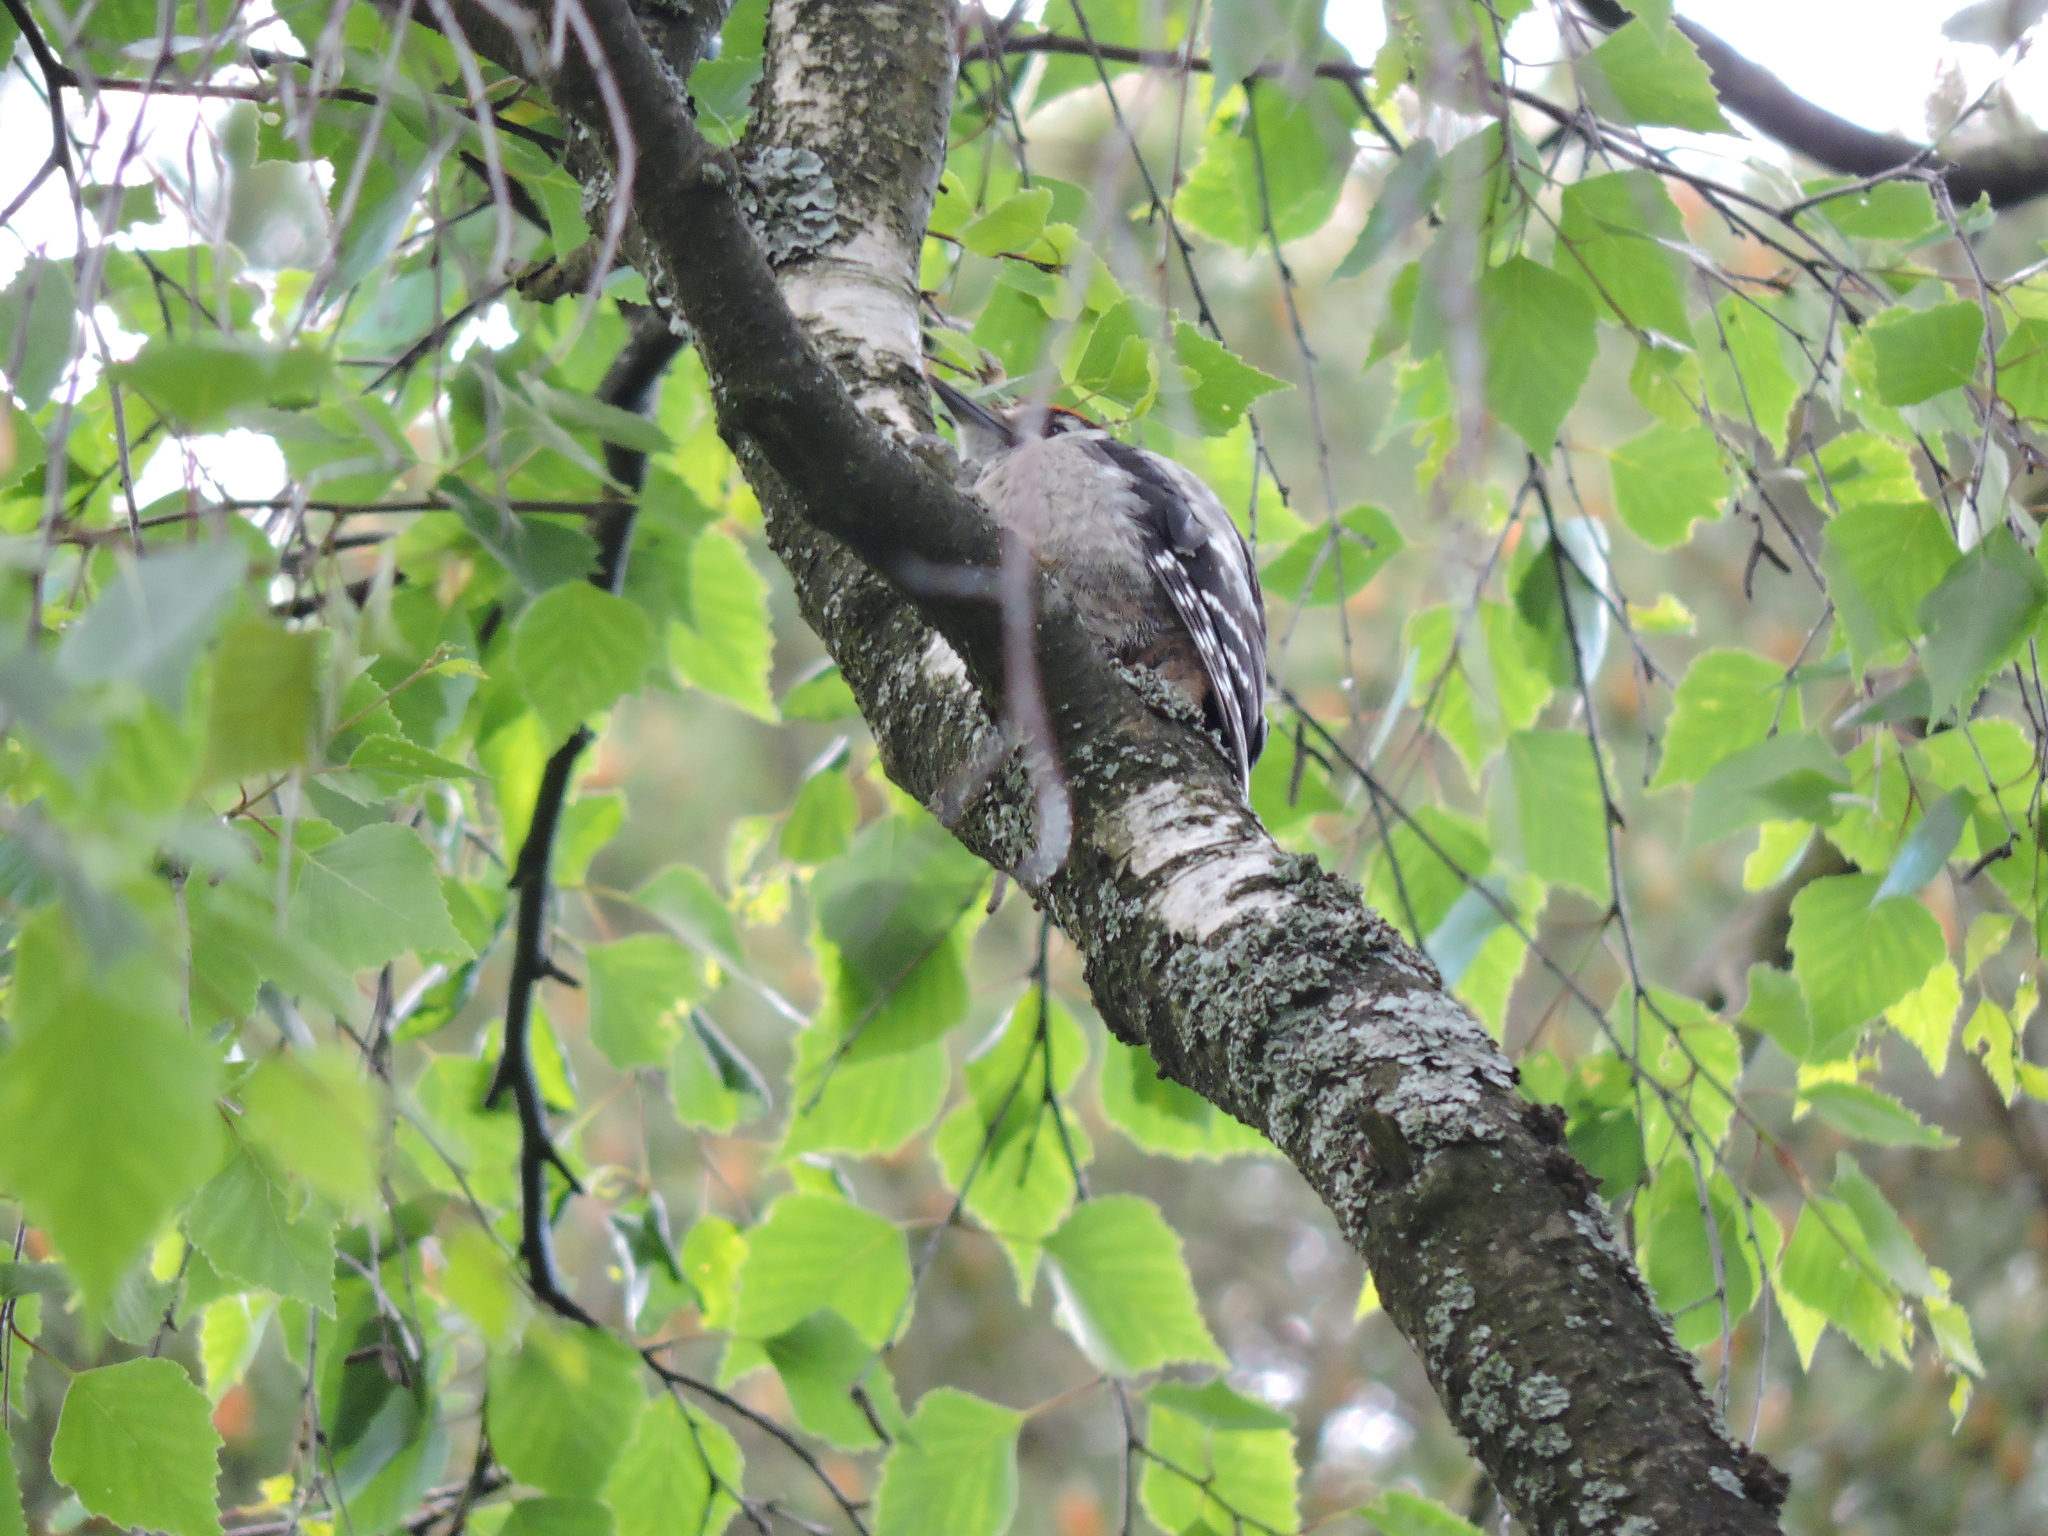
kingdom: Animalia
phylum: Chordata
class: Aves
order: Piciformes
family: Picidae
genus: Dendrocopos
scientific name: Dendrocopos major
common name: Great spotted woodpecker
